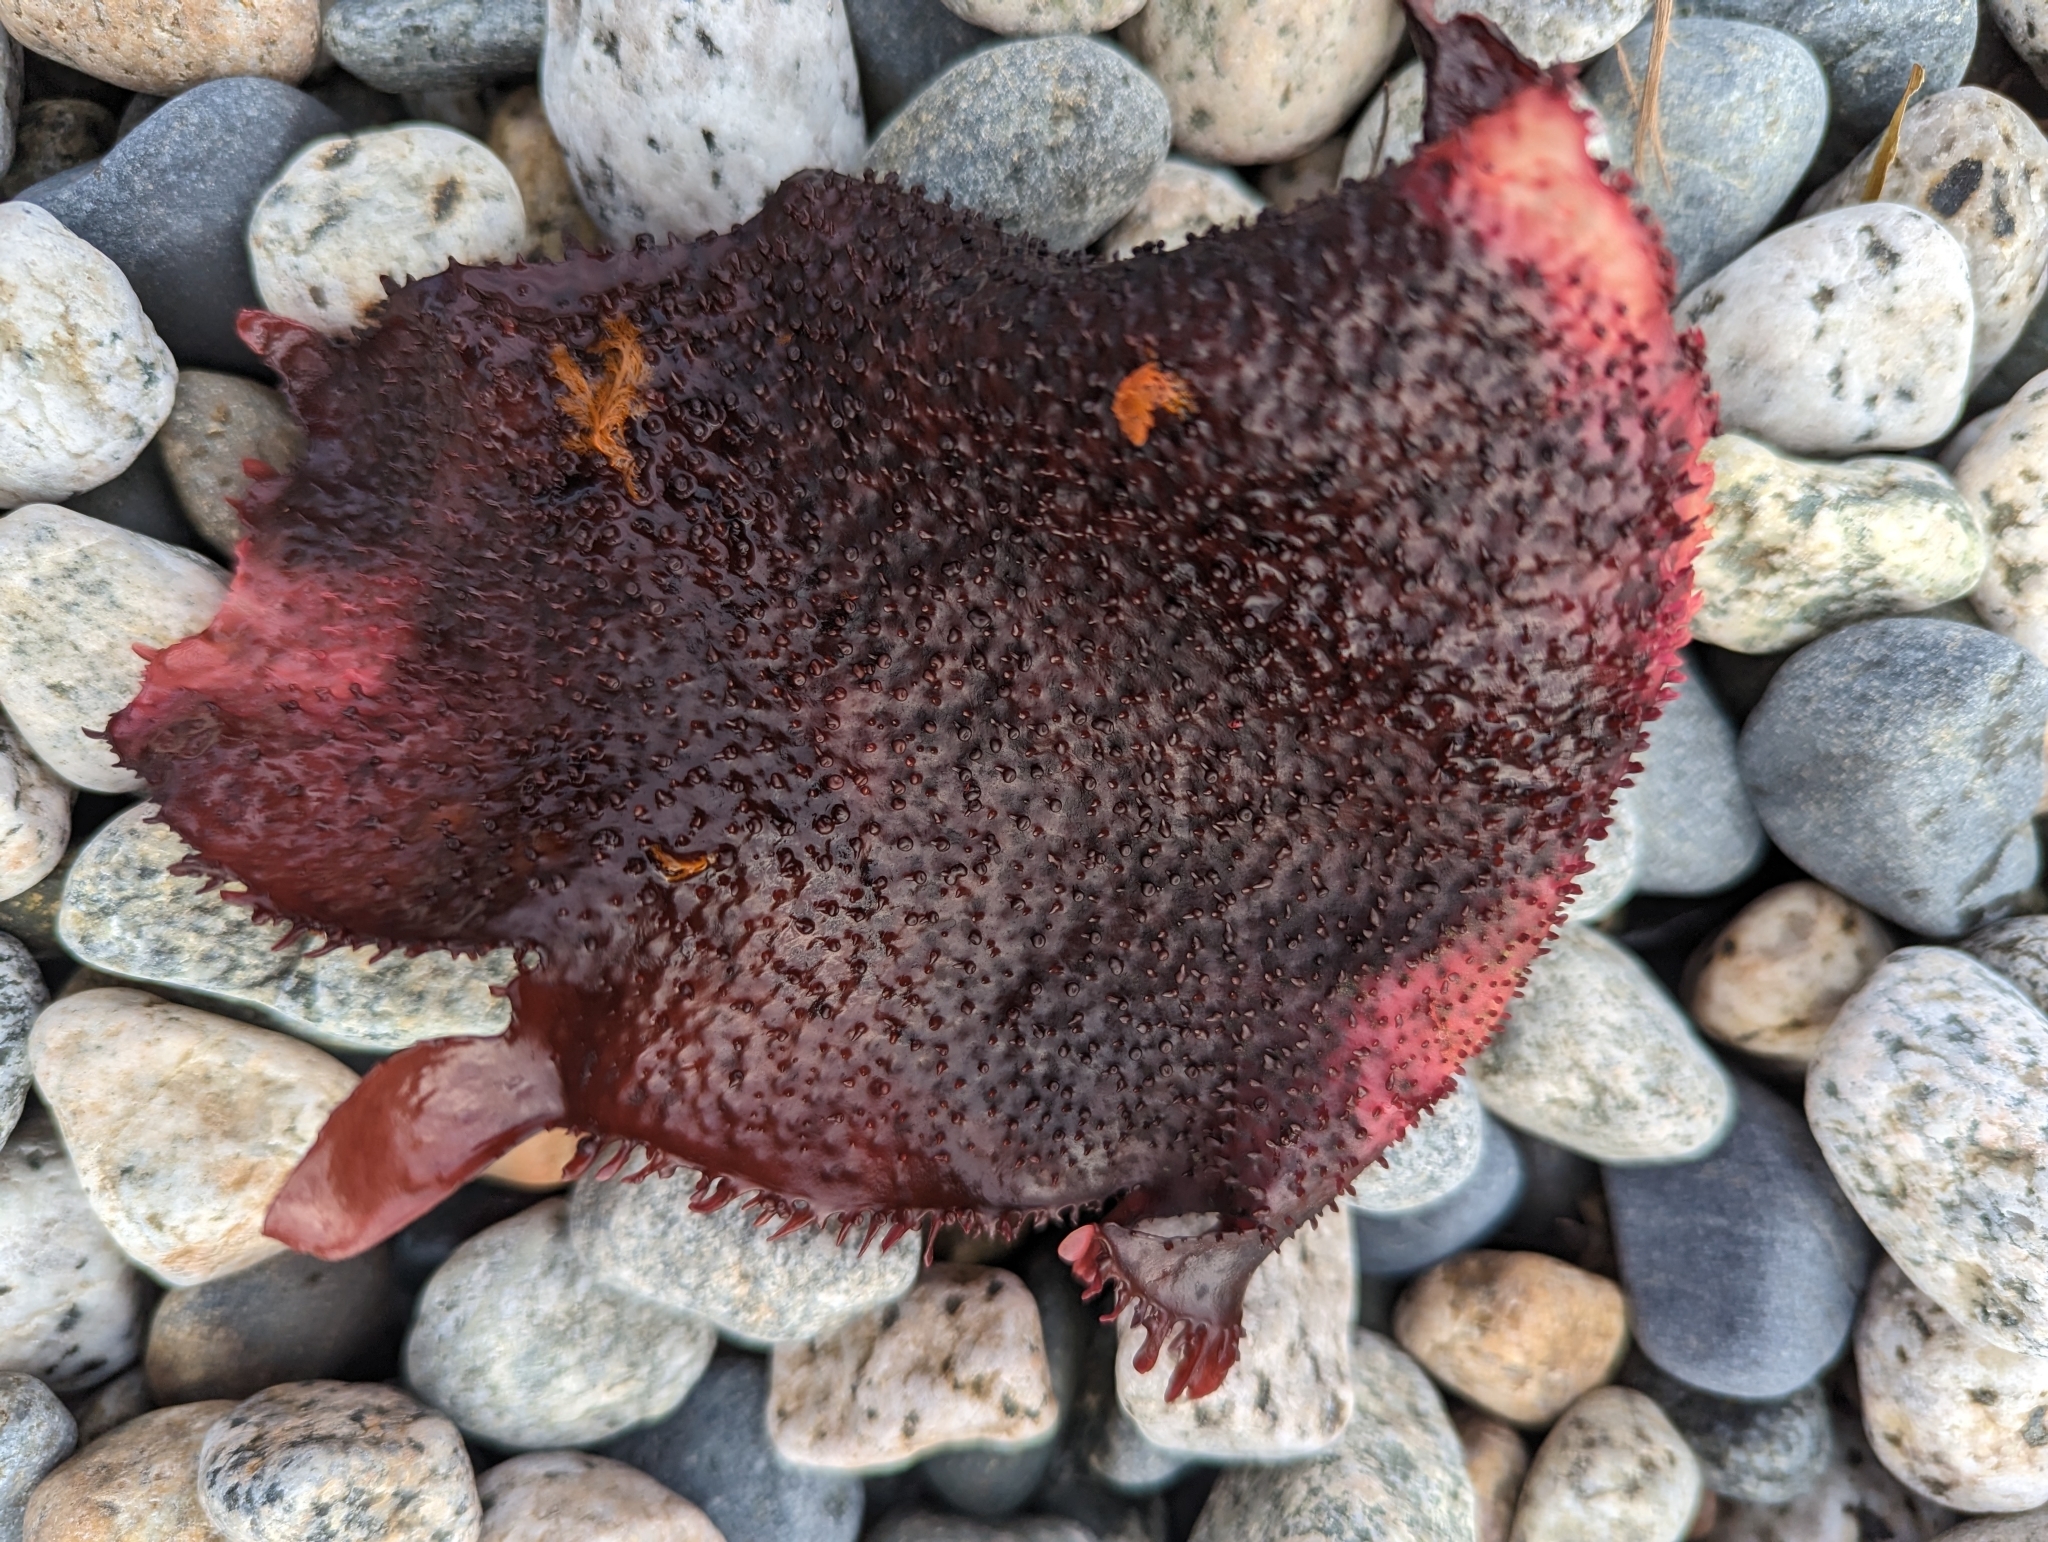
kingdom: Plantae
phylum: Rhodophyta
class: Florideophyceae
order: Gigartinales
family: Gigartinaceae
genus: Chondracanthus
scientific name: Chondracanthus exasperatus
